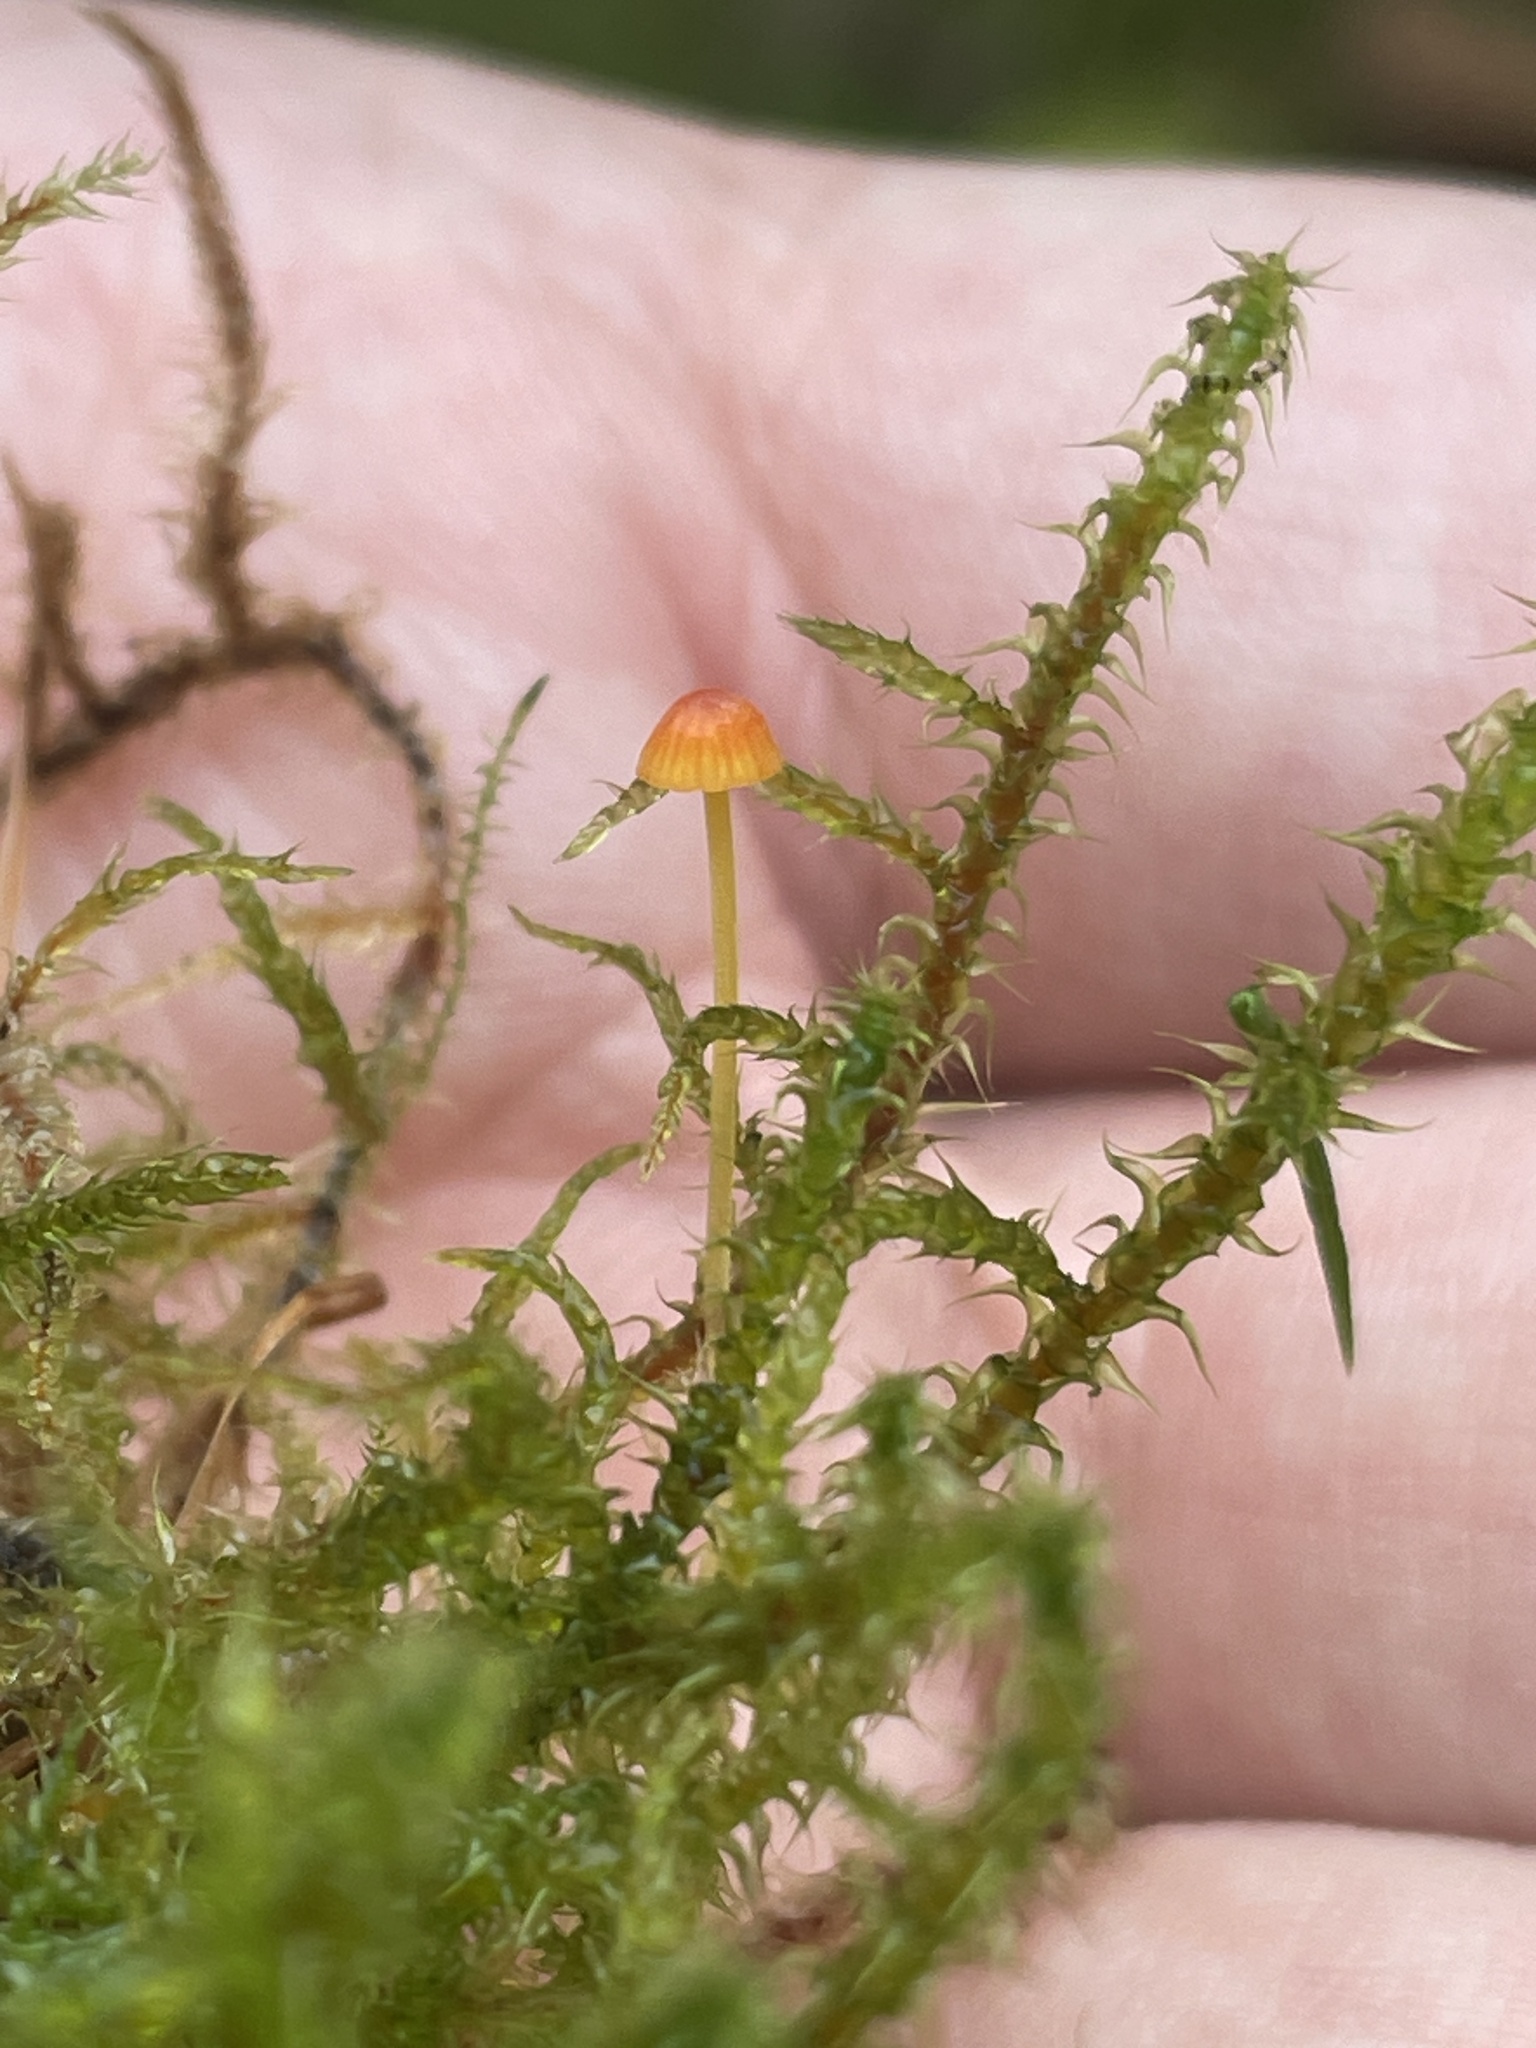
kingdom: Fungi
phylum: Basidiomycota
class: Agaricomycetes
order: Agaricales
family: Mycenaceae
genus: Mycena
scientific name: Mycena acicula
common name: Orange bonnet
